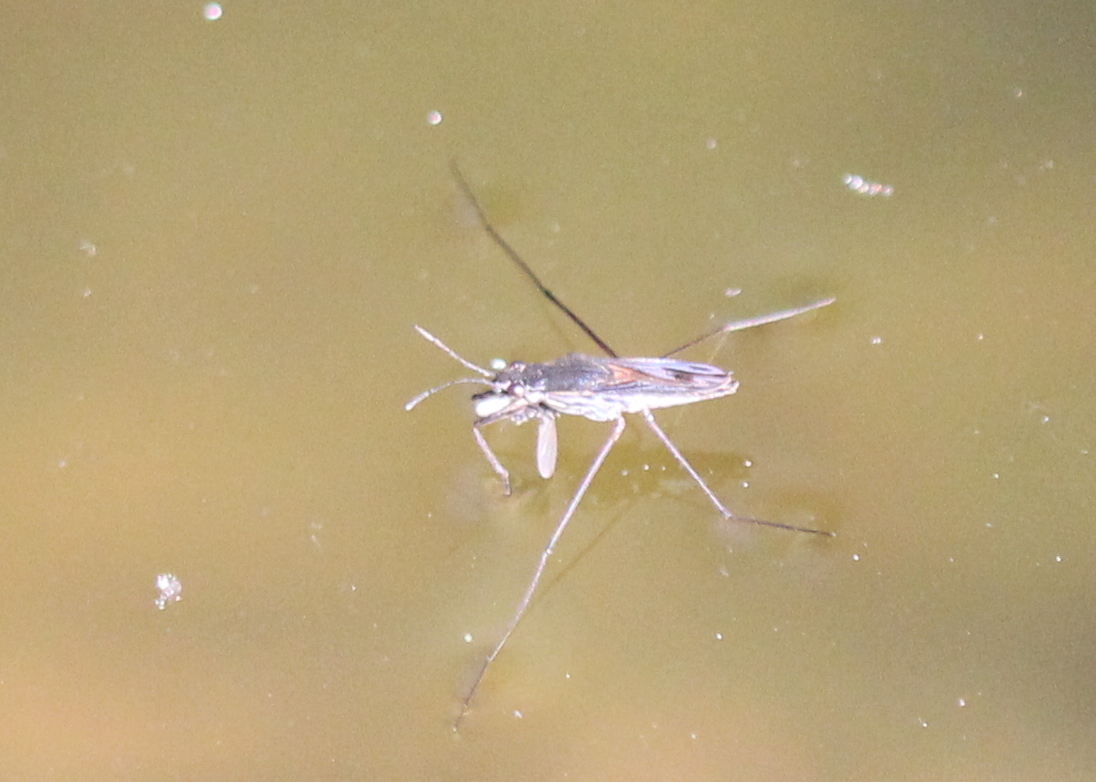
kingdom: Animalia
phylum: Arthropoda
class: Insecta
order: Hemiptera
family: Gerridae
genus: Gerris
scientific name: Gerris
